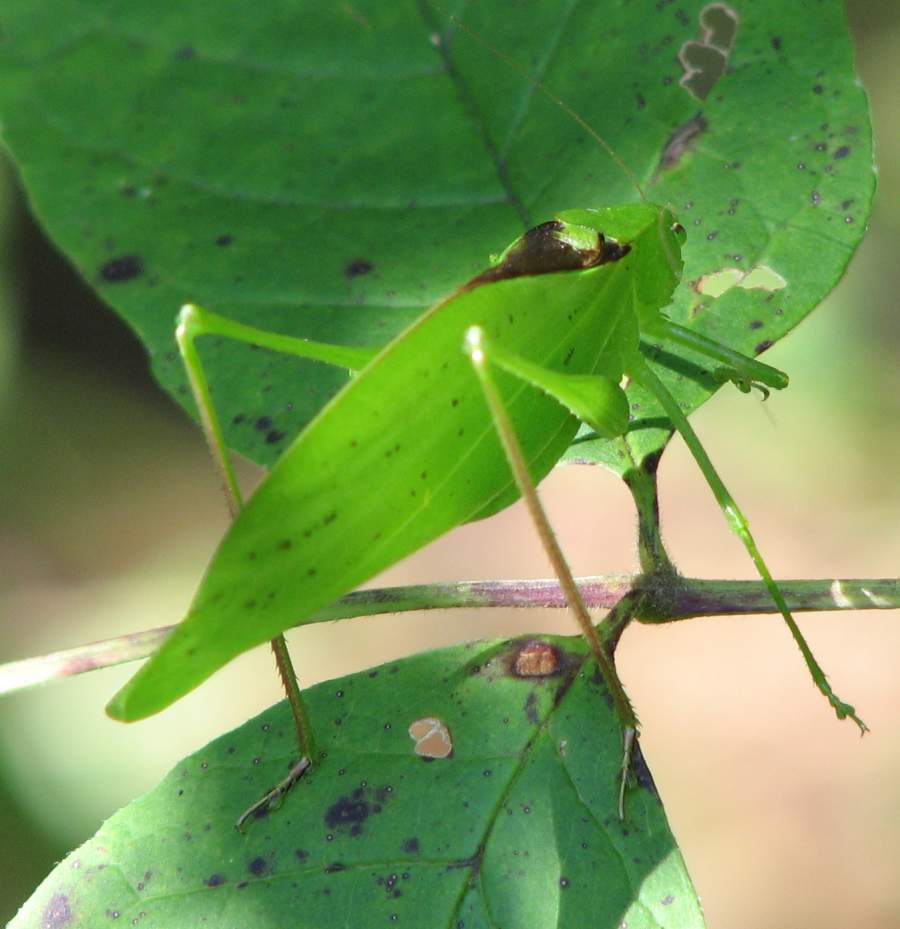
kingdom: Animalia
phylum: Arthropoda
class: Insecta
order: Orthoptera
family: Tettigoniidae
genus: Amblycorypha
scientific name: Amblycorypha oblongifolia
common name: Oblong-winged katydid
